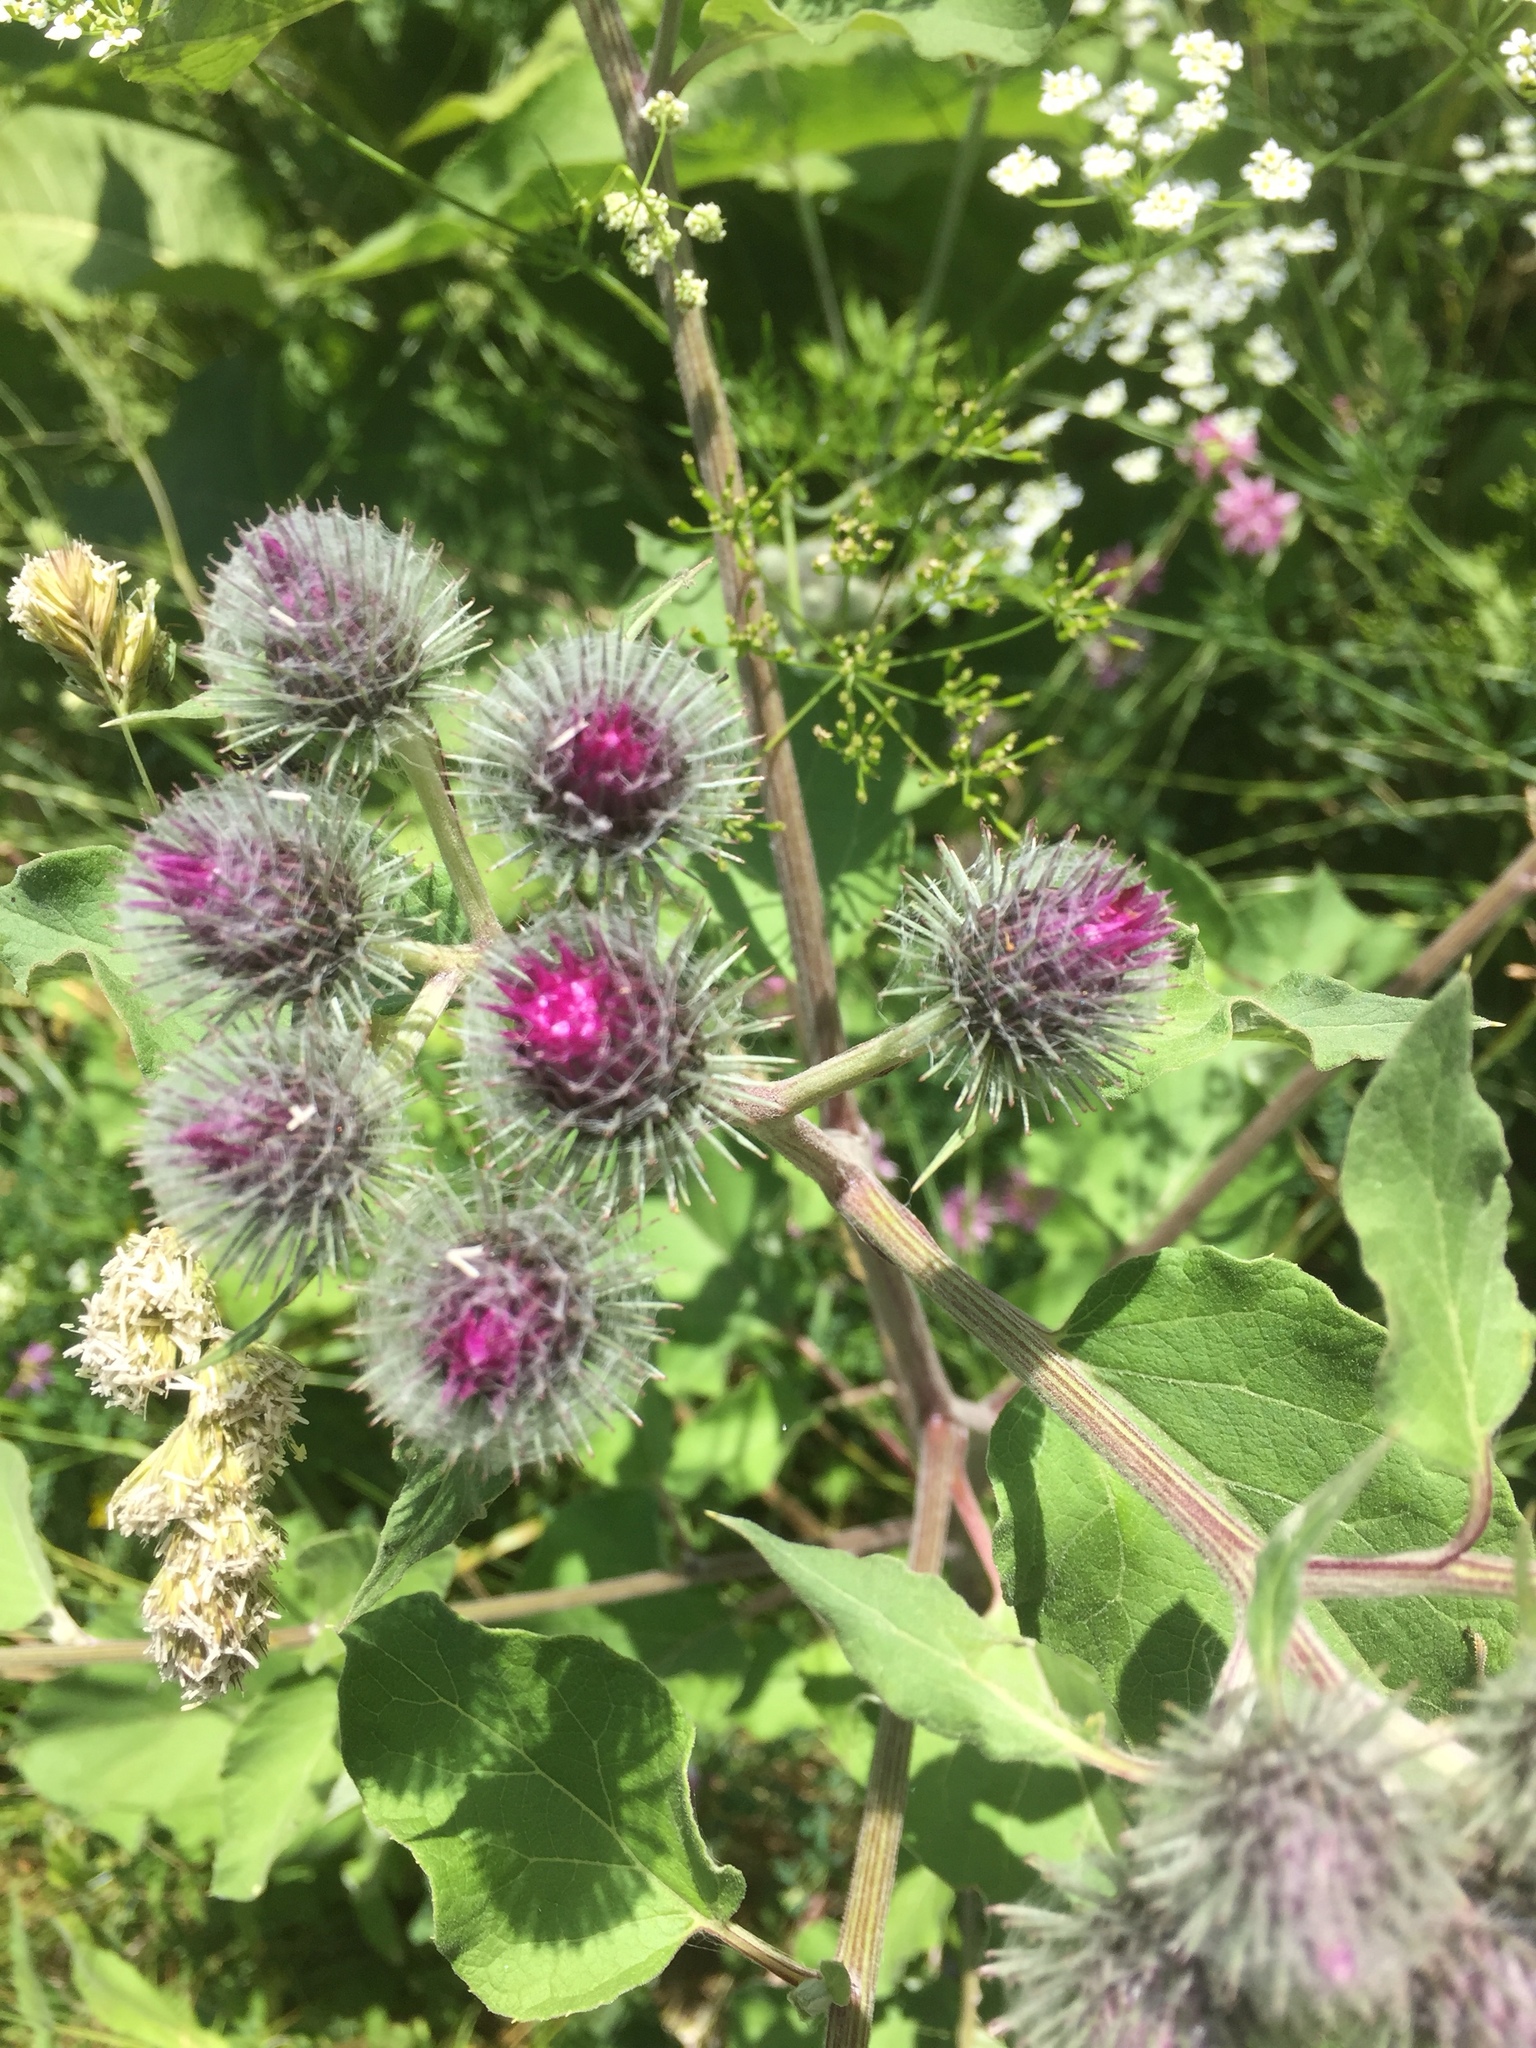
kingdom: Plantae
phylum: Tracheophyta
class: Magnoliopsida
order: Asterales
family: Asteraceae
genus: Arctium
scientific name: Arctium tomentosum
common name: Woolly burdock
